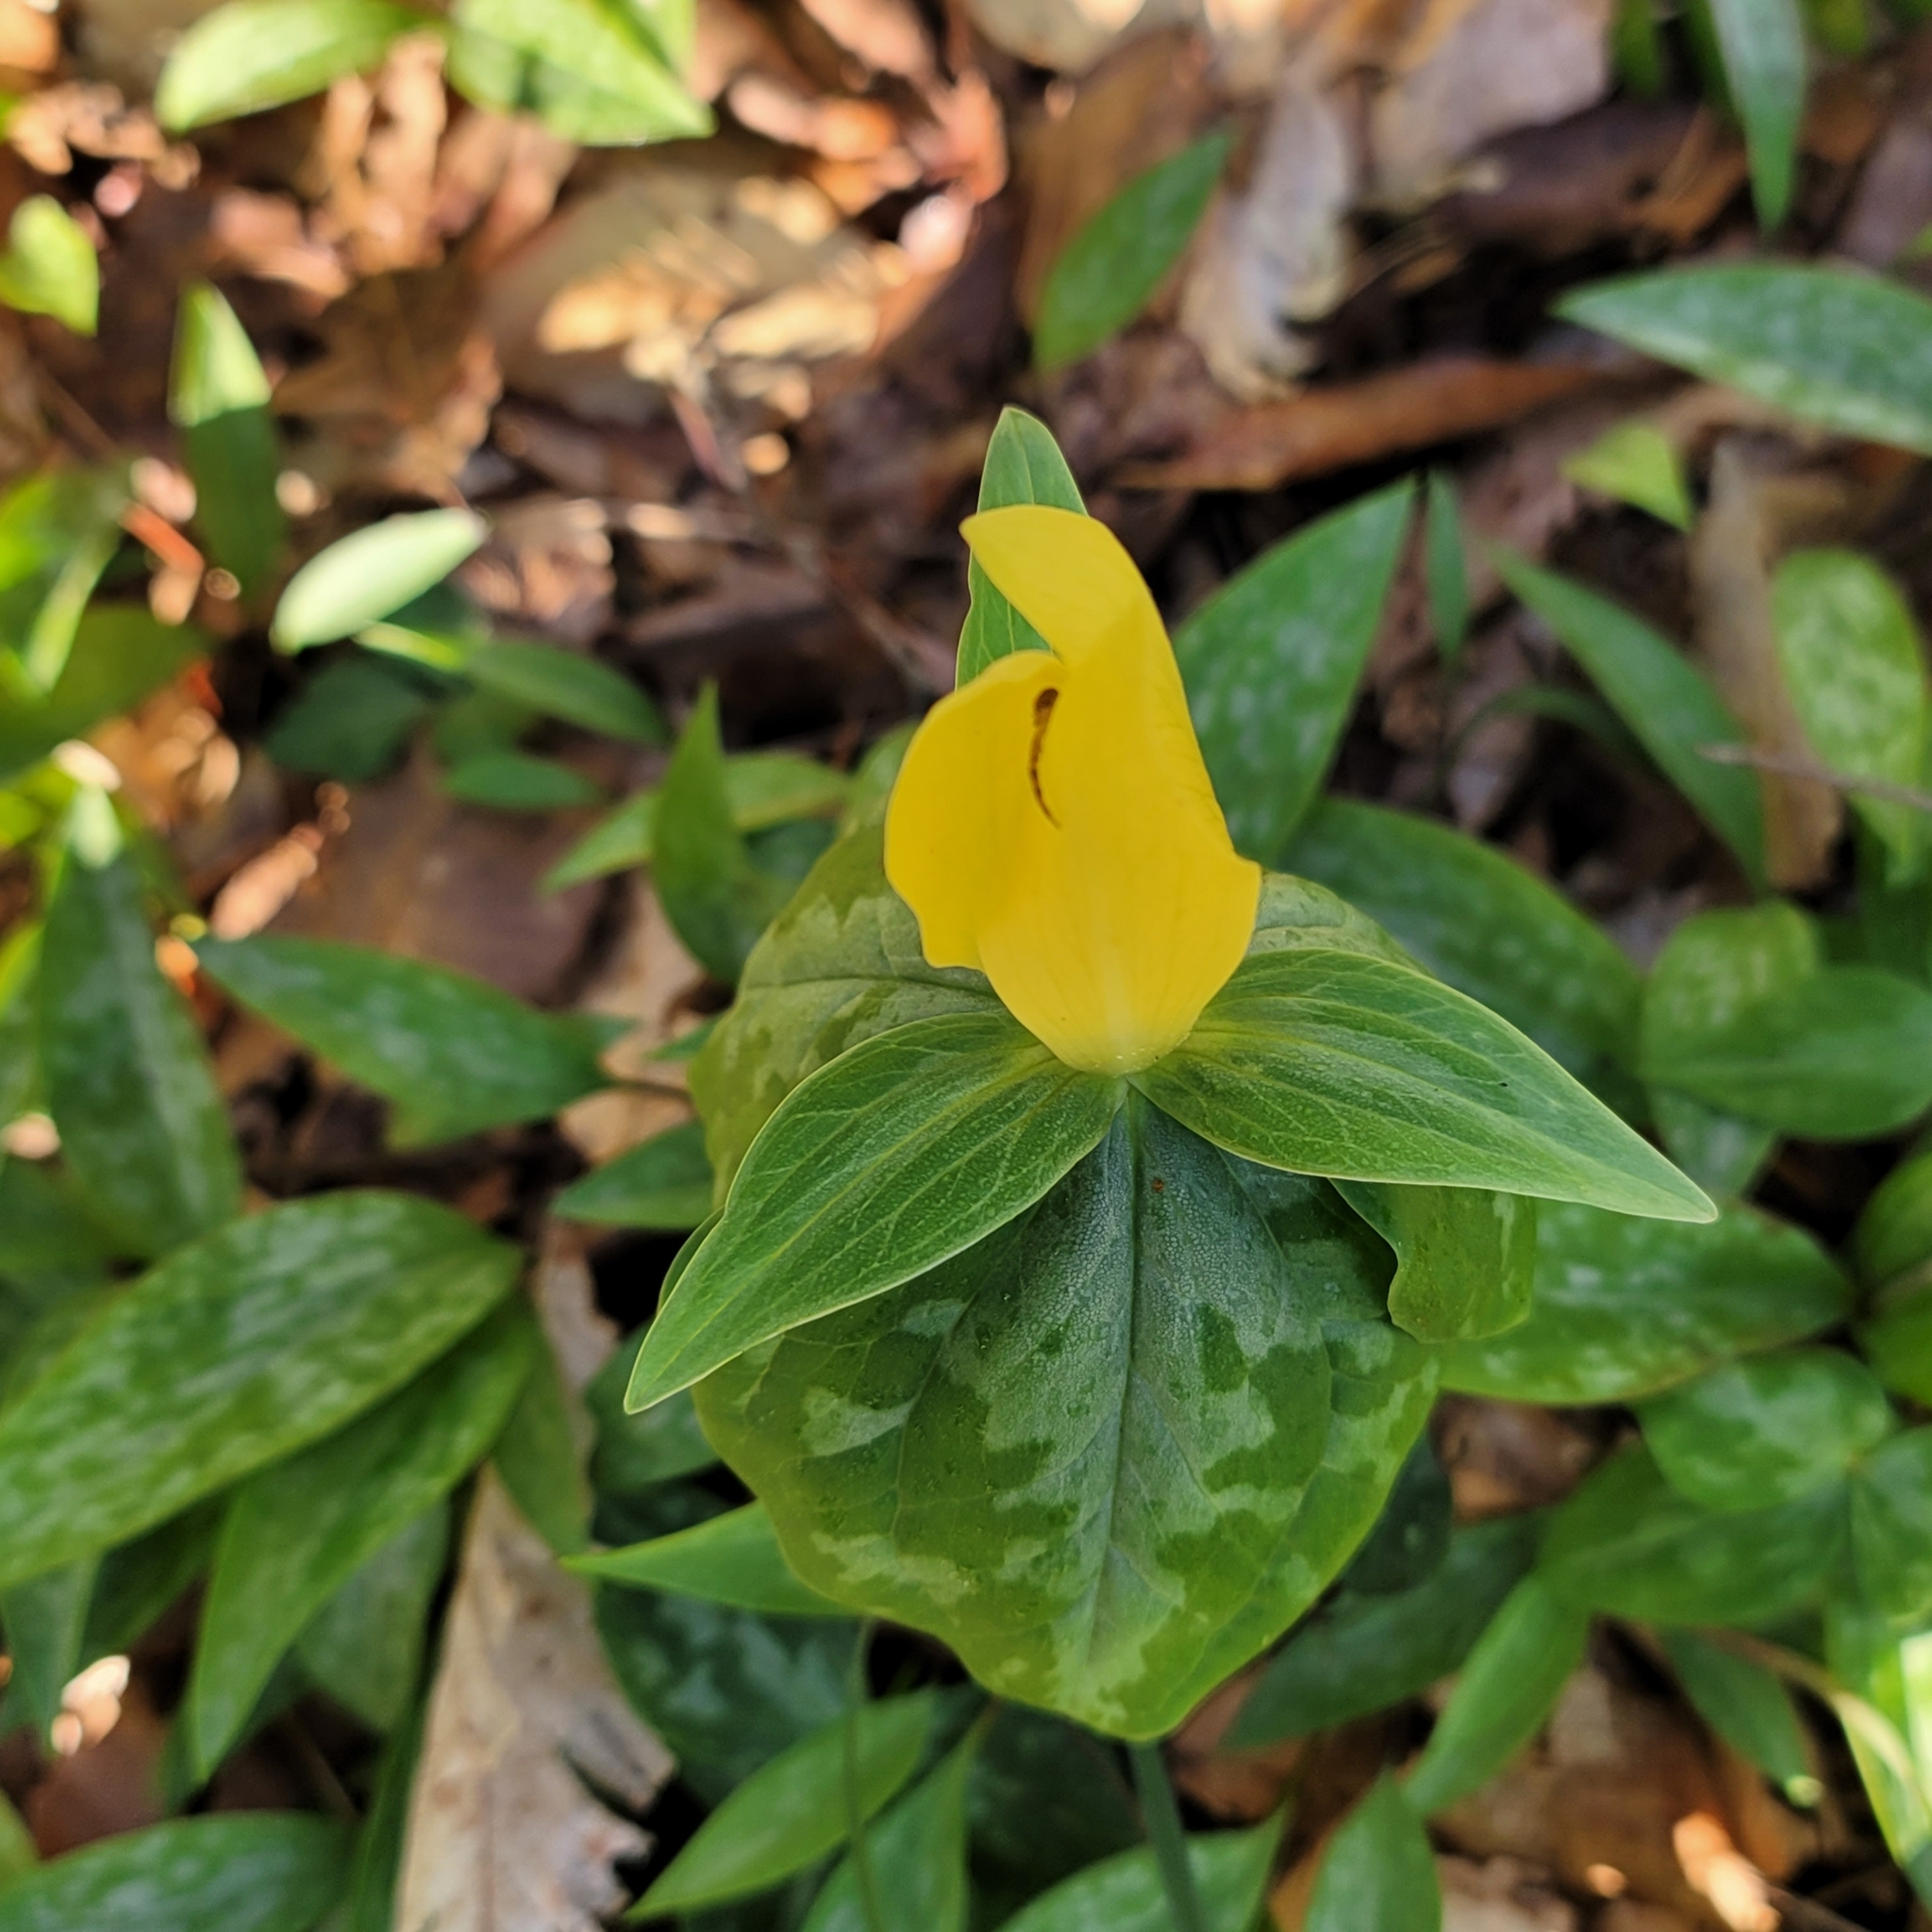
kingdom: Plantae
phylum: Tracheophyta
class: Liliopsida
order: Liliales
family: Melanthiaceae
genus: Trillium
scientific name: Trillium cuneatum
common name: Cuneate trillium
